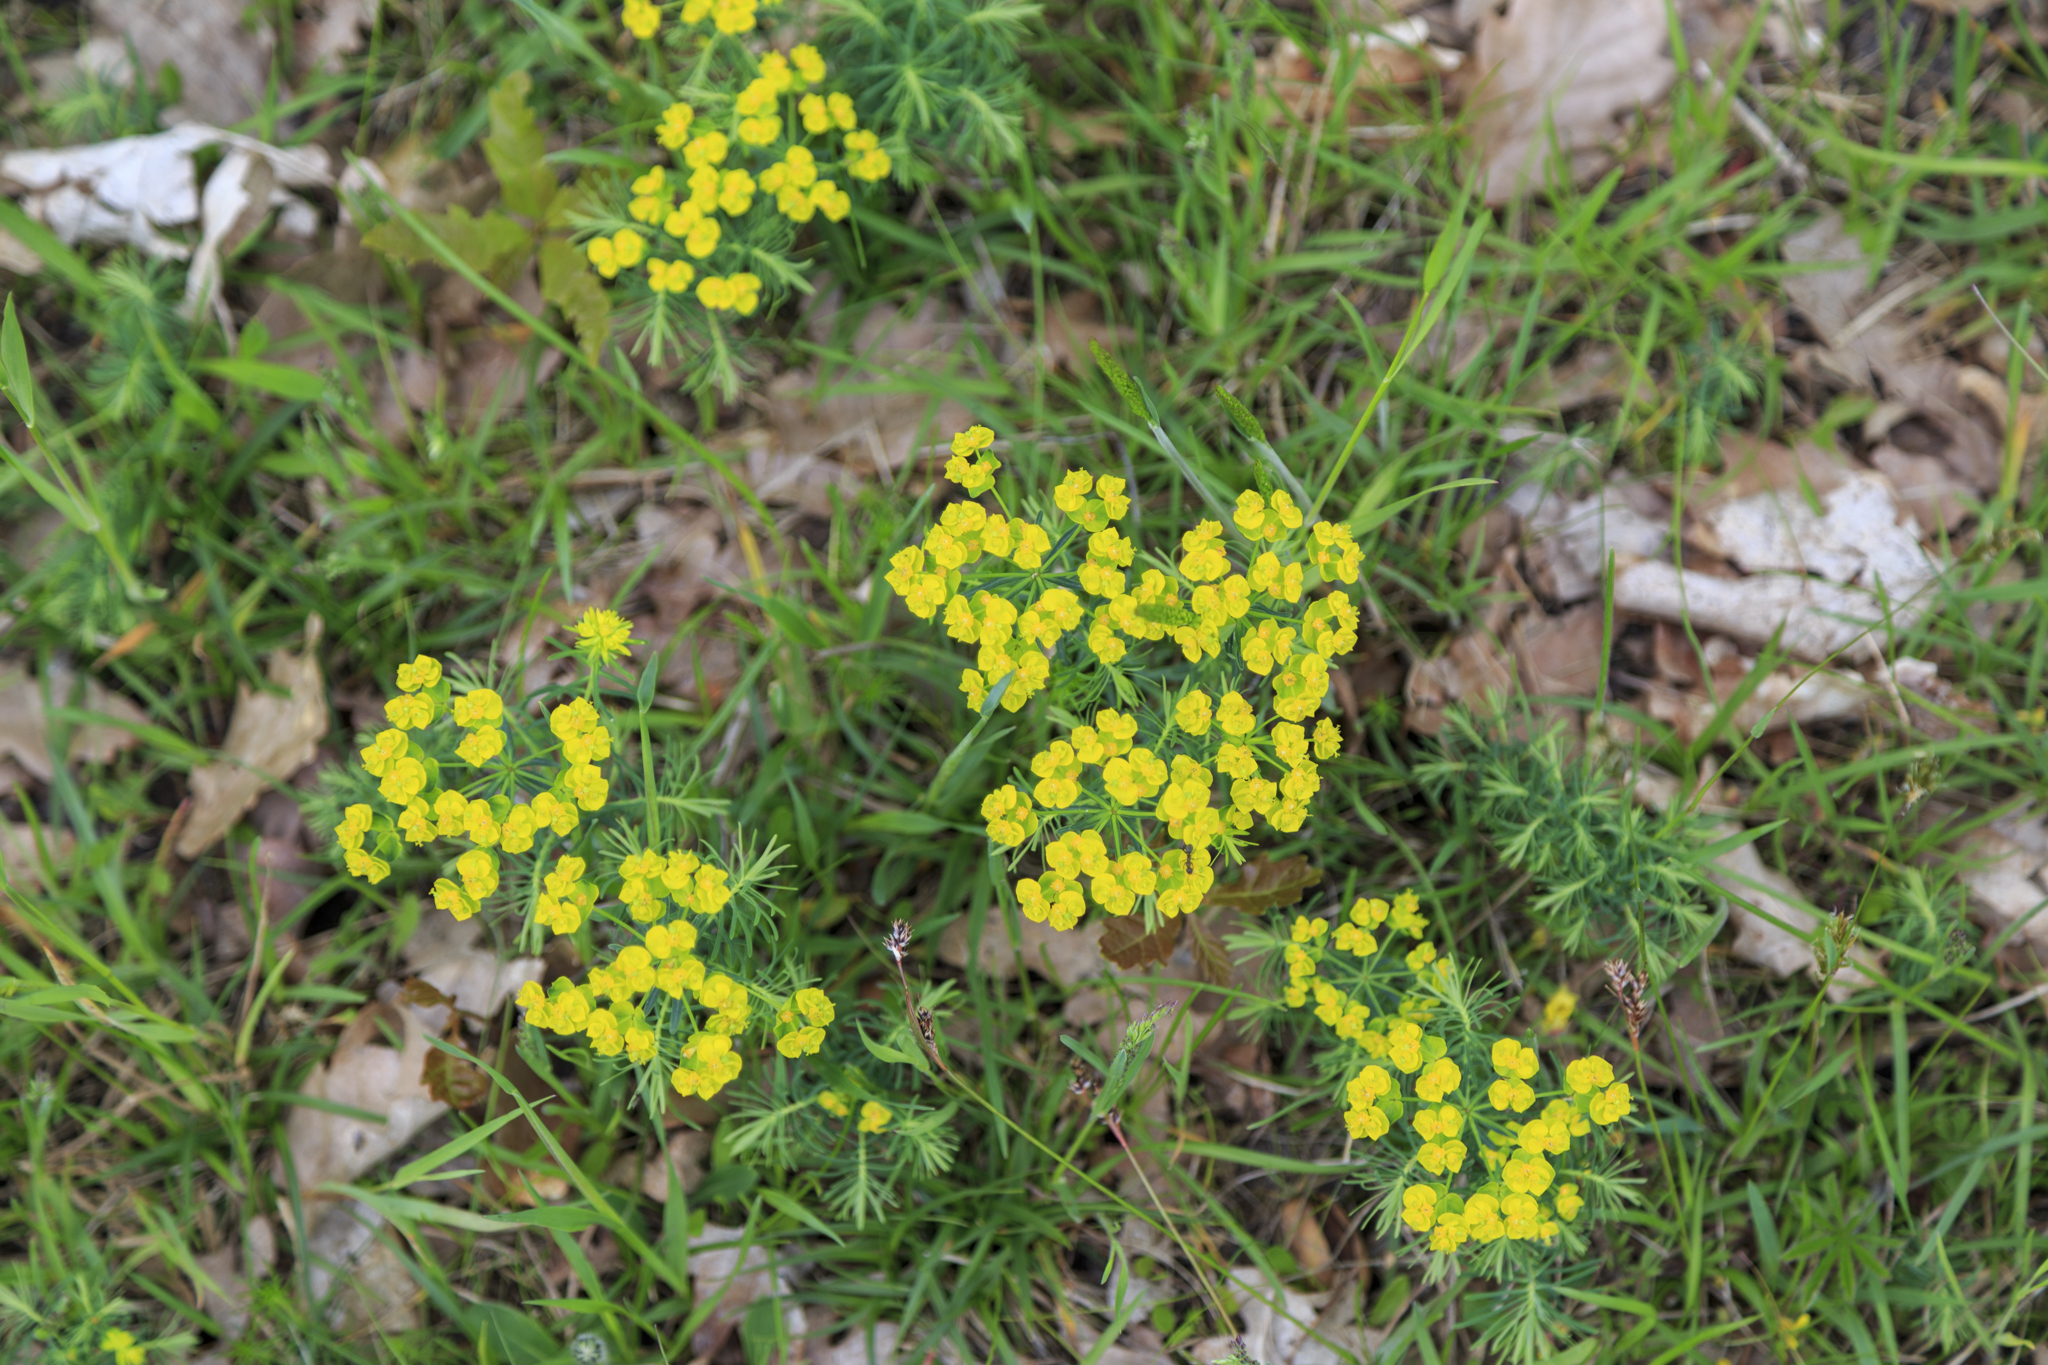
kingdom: Plantae
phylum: Tracheophyta
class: Magnoliopsida
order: Malpighiales
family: Euphorbiaceae
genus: Euphorbia
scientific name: Euphorbia cyparissias
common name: Cypress spurge
